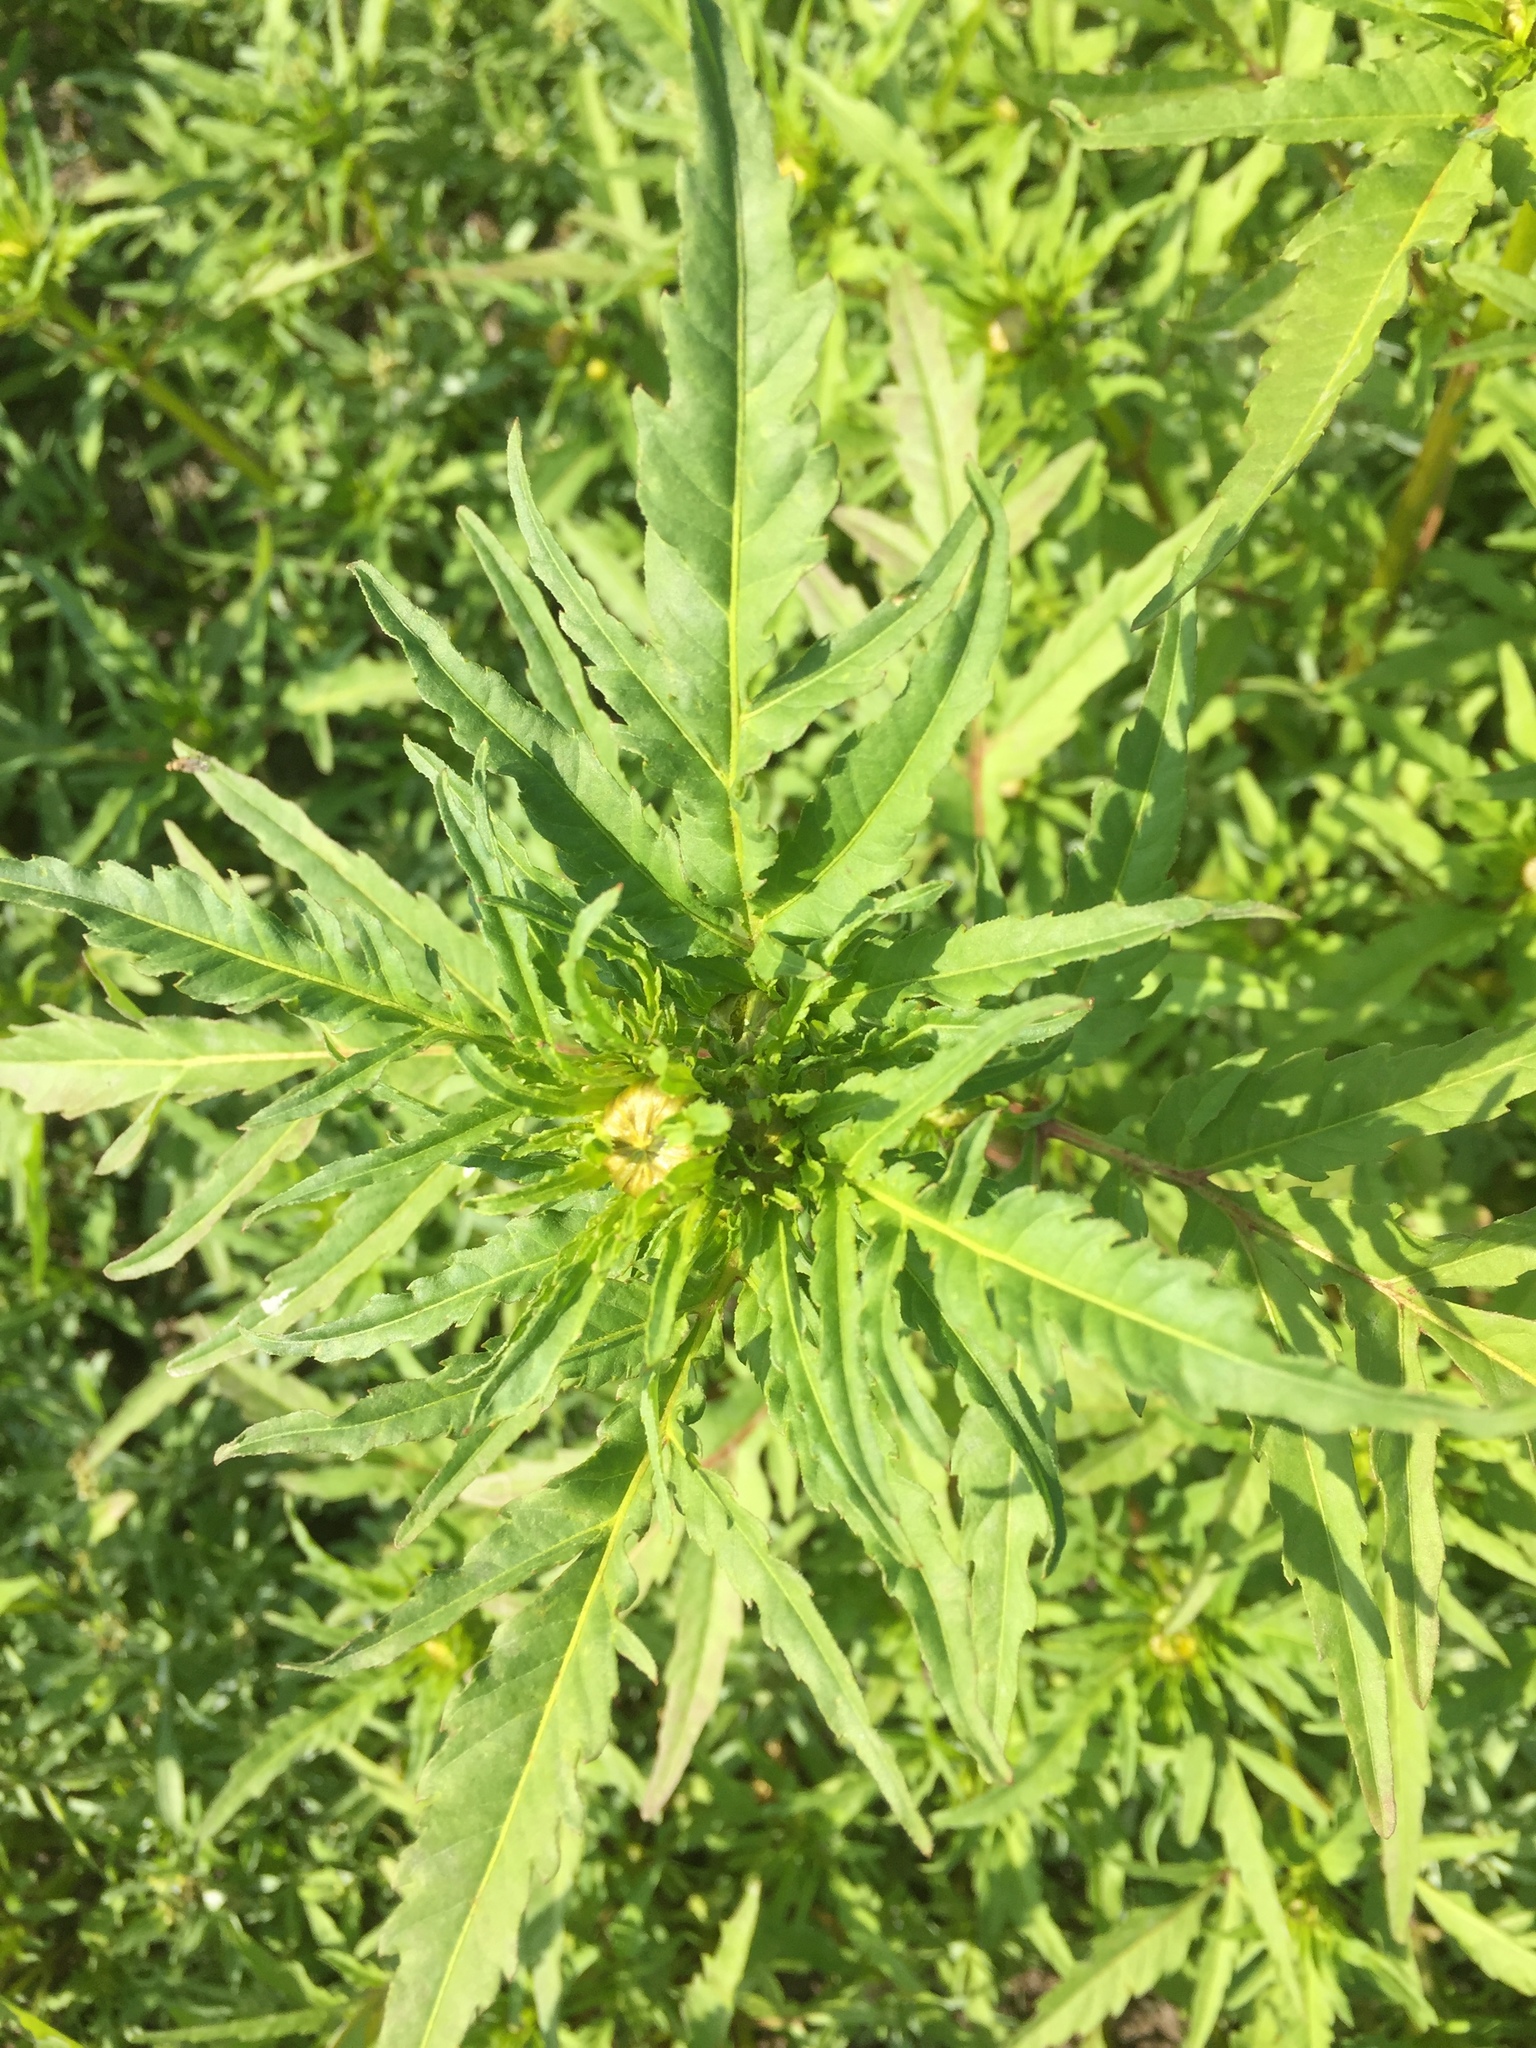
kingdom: Plantae
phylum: Tracheophyta
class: Magnoliopsida
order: Asterales
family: Asteraceae
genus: Bidens
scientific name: Bidens radiata
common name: Radiating bur-marigold
